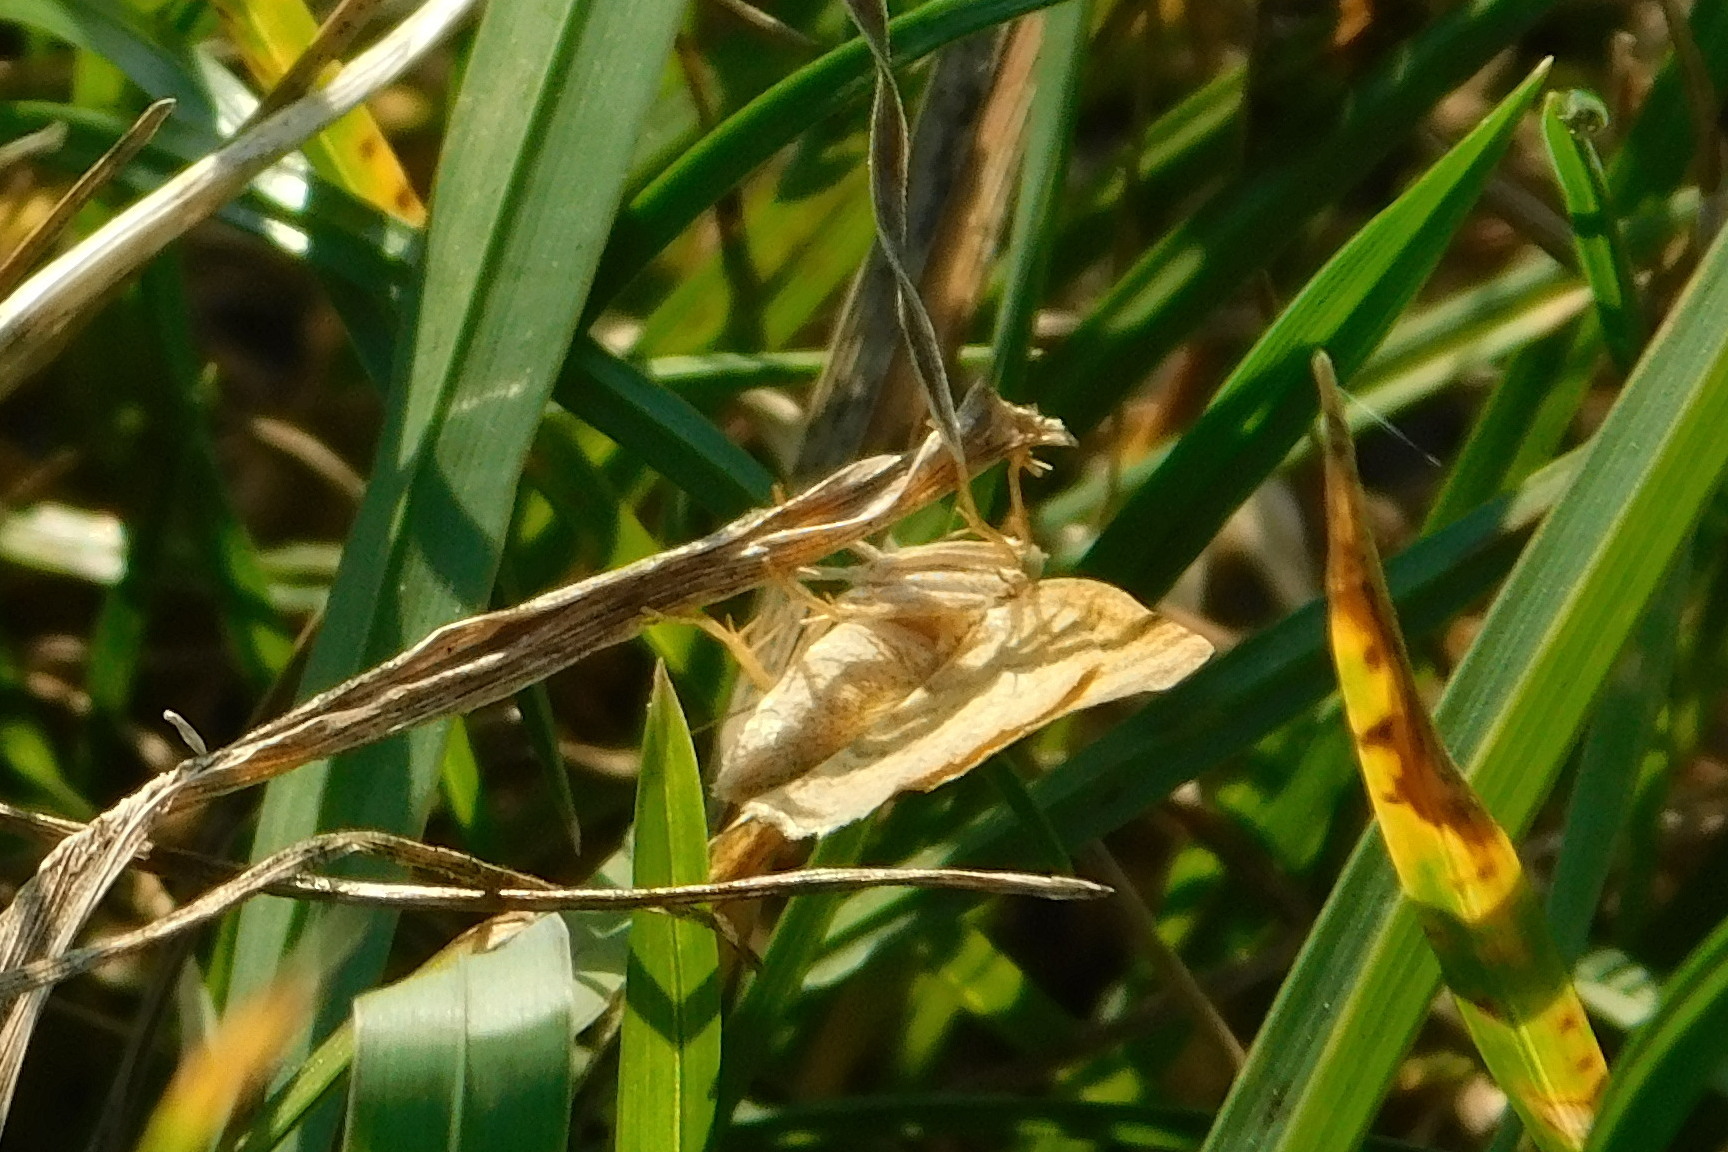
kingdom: Animalia
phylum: Arthropoda
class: Insecta
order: Lepidoptera
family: Geometridae
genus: Camptogramma
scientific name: Camptogramma bilineata
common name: Yellow shell
